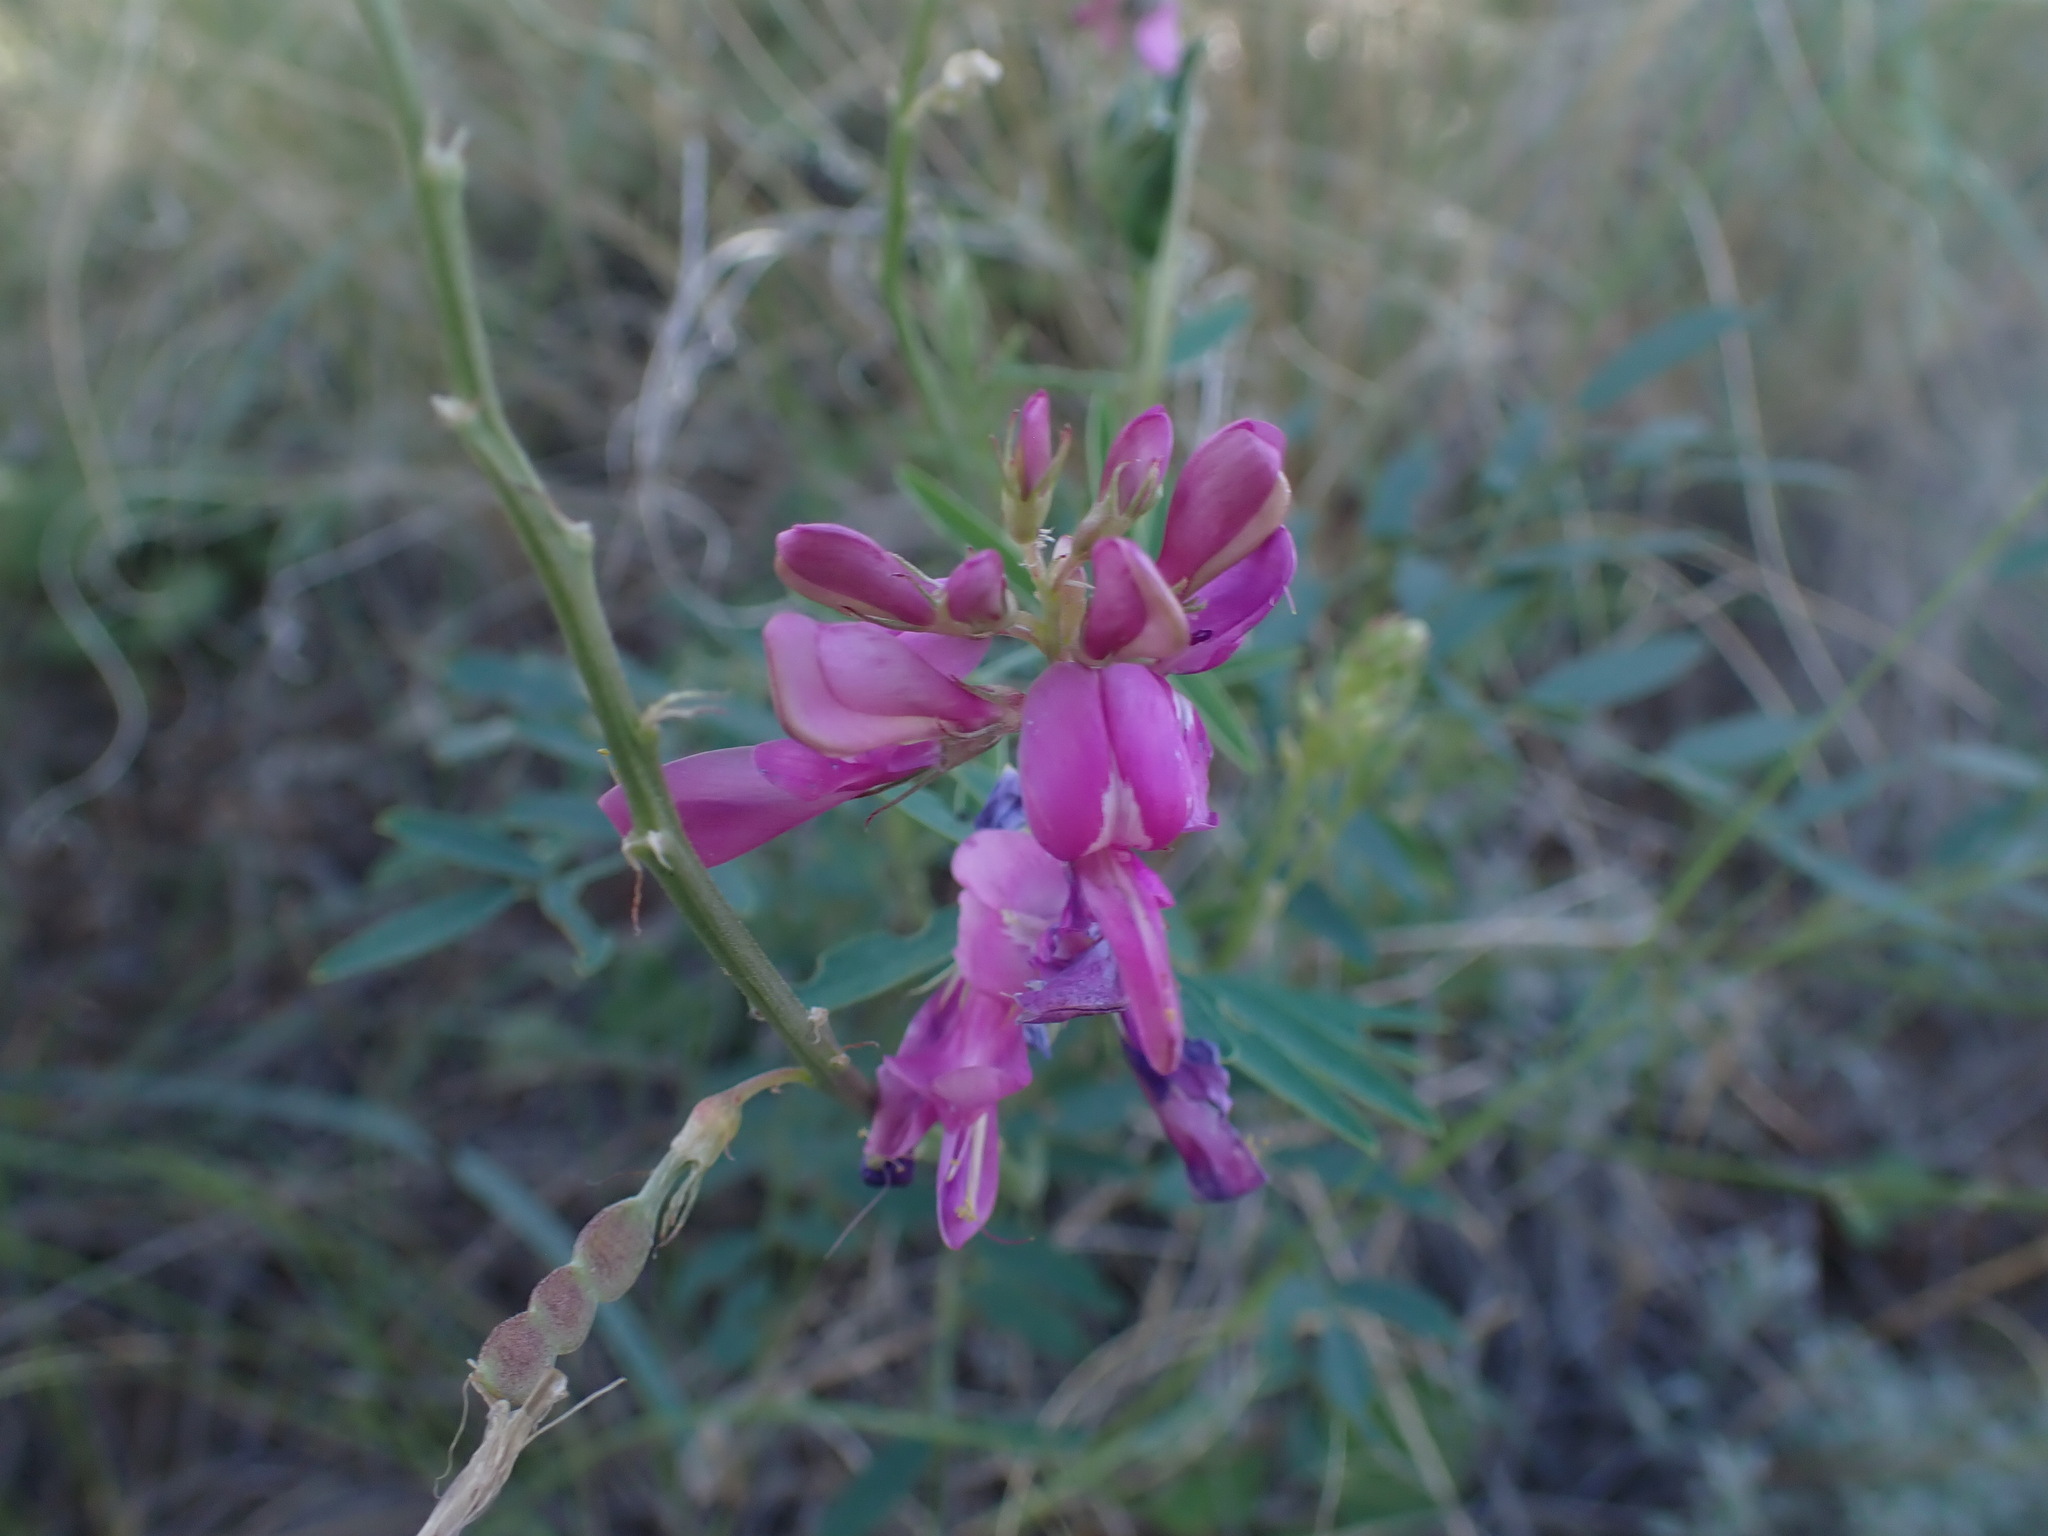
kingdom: Plantae
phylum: Tracheophyta
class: Magnoliopsida
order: Fabales
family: Fabaceae
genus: Hedysarum
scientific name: Hedysarum boreale
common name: Northern sweet-vetch
